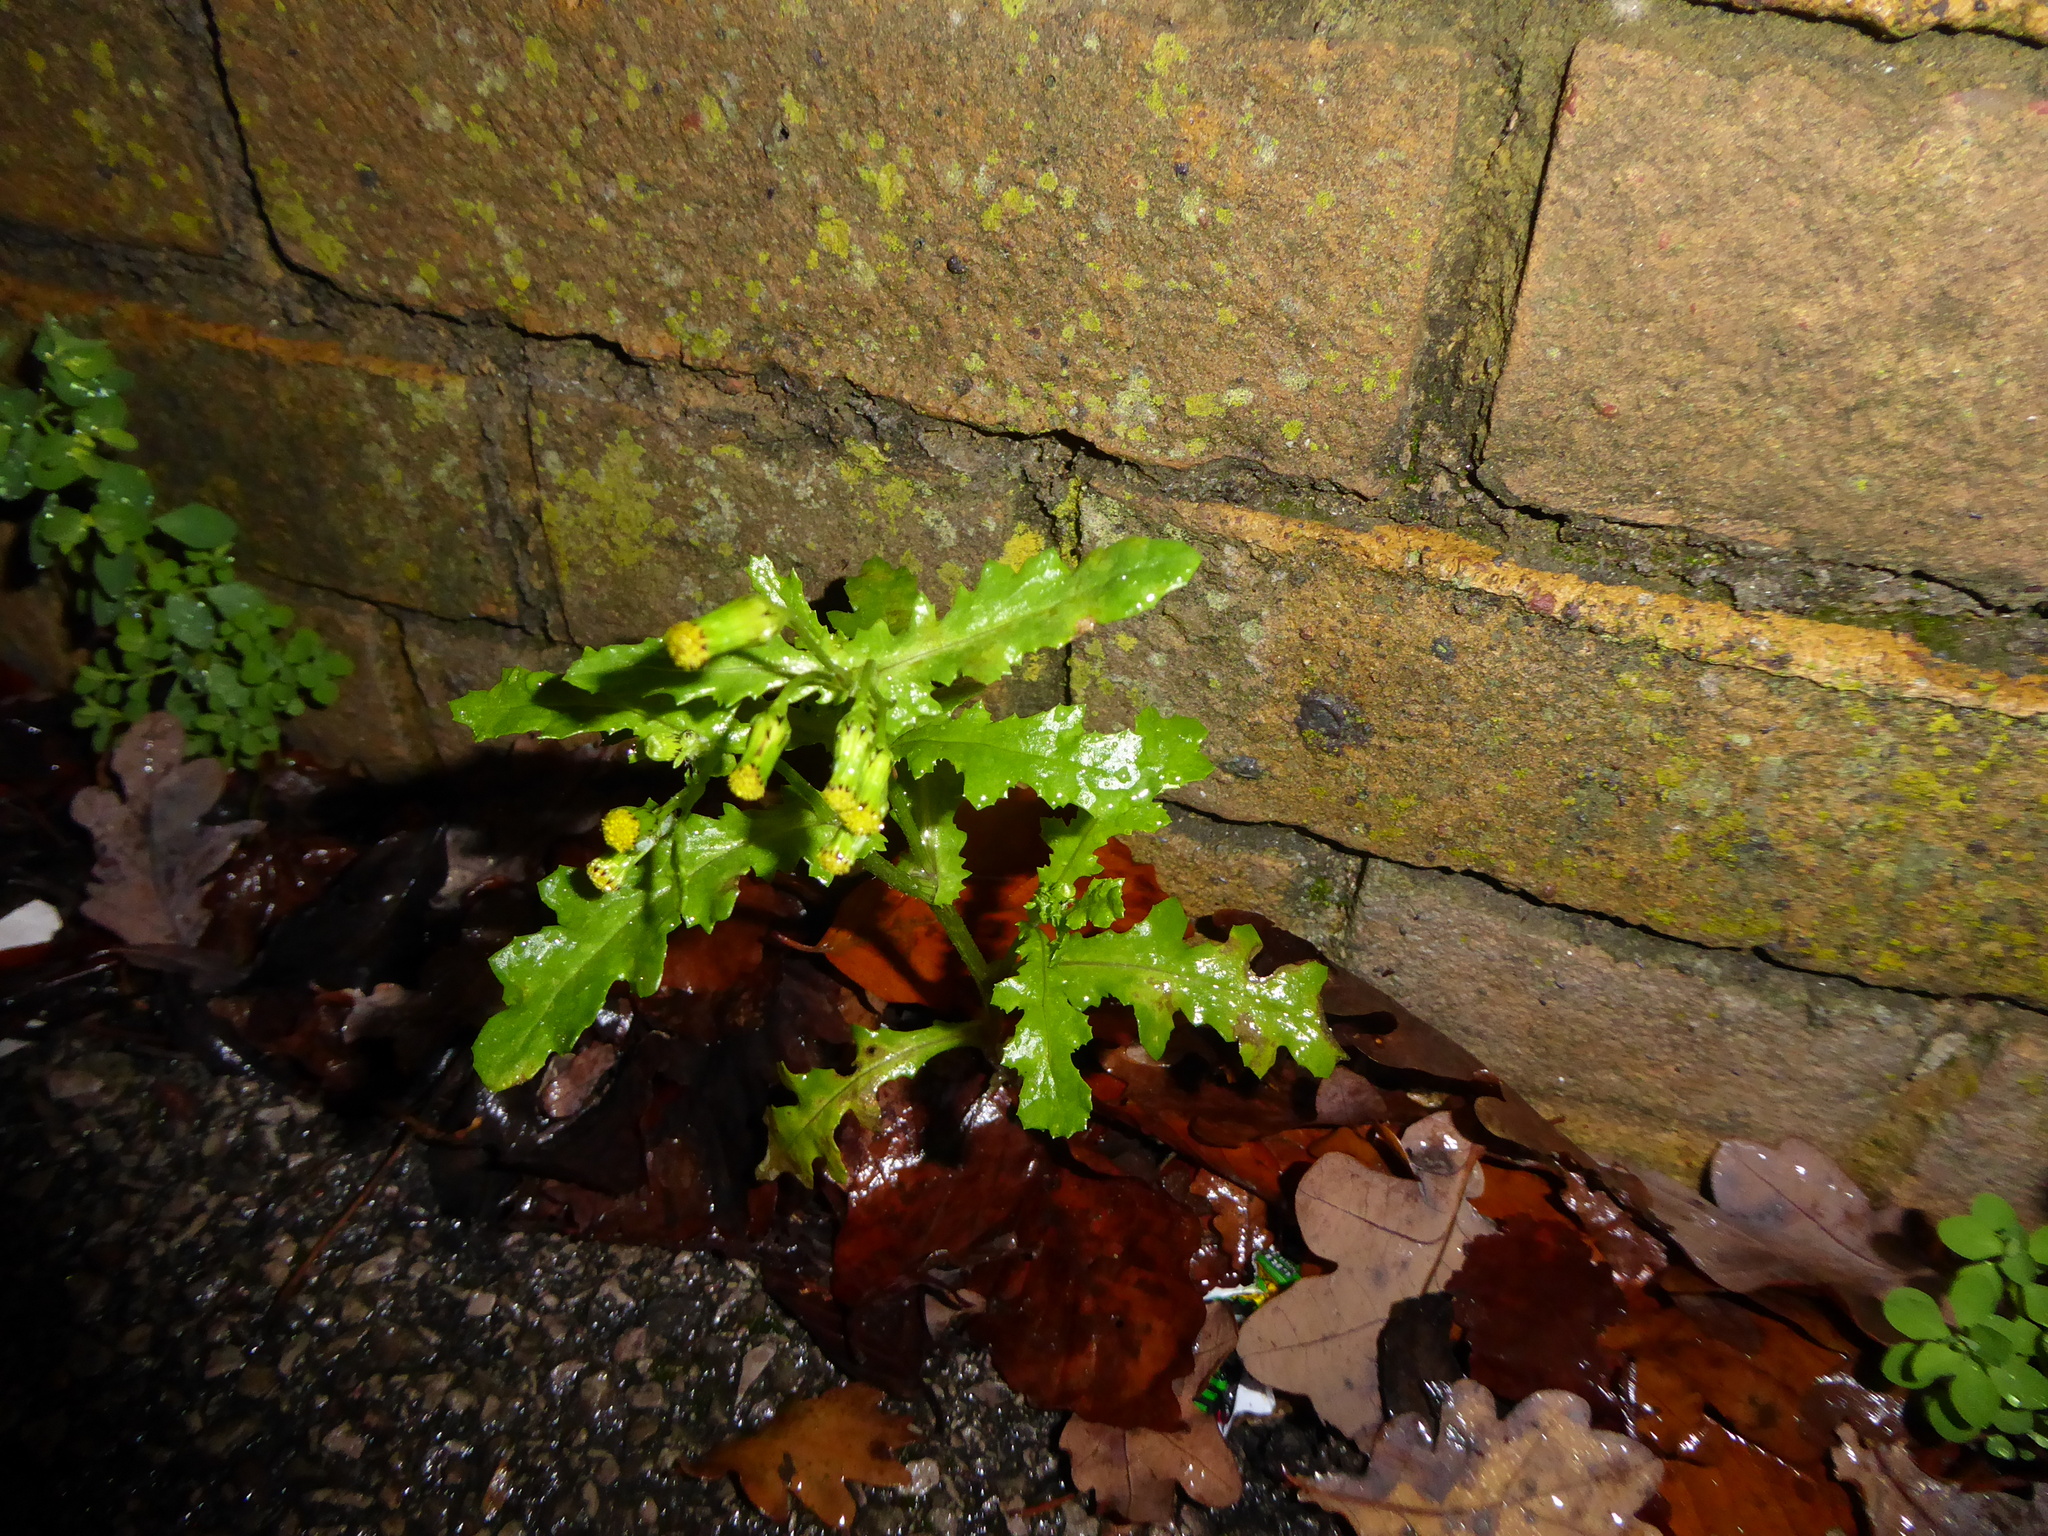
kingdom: Plantae
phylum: Tracheophyta
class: Magnoliopsida
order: Asterales
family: Asteraceae
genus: Senecio
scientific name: Senecio vulgaris
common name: Old-man-in-the-spring
